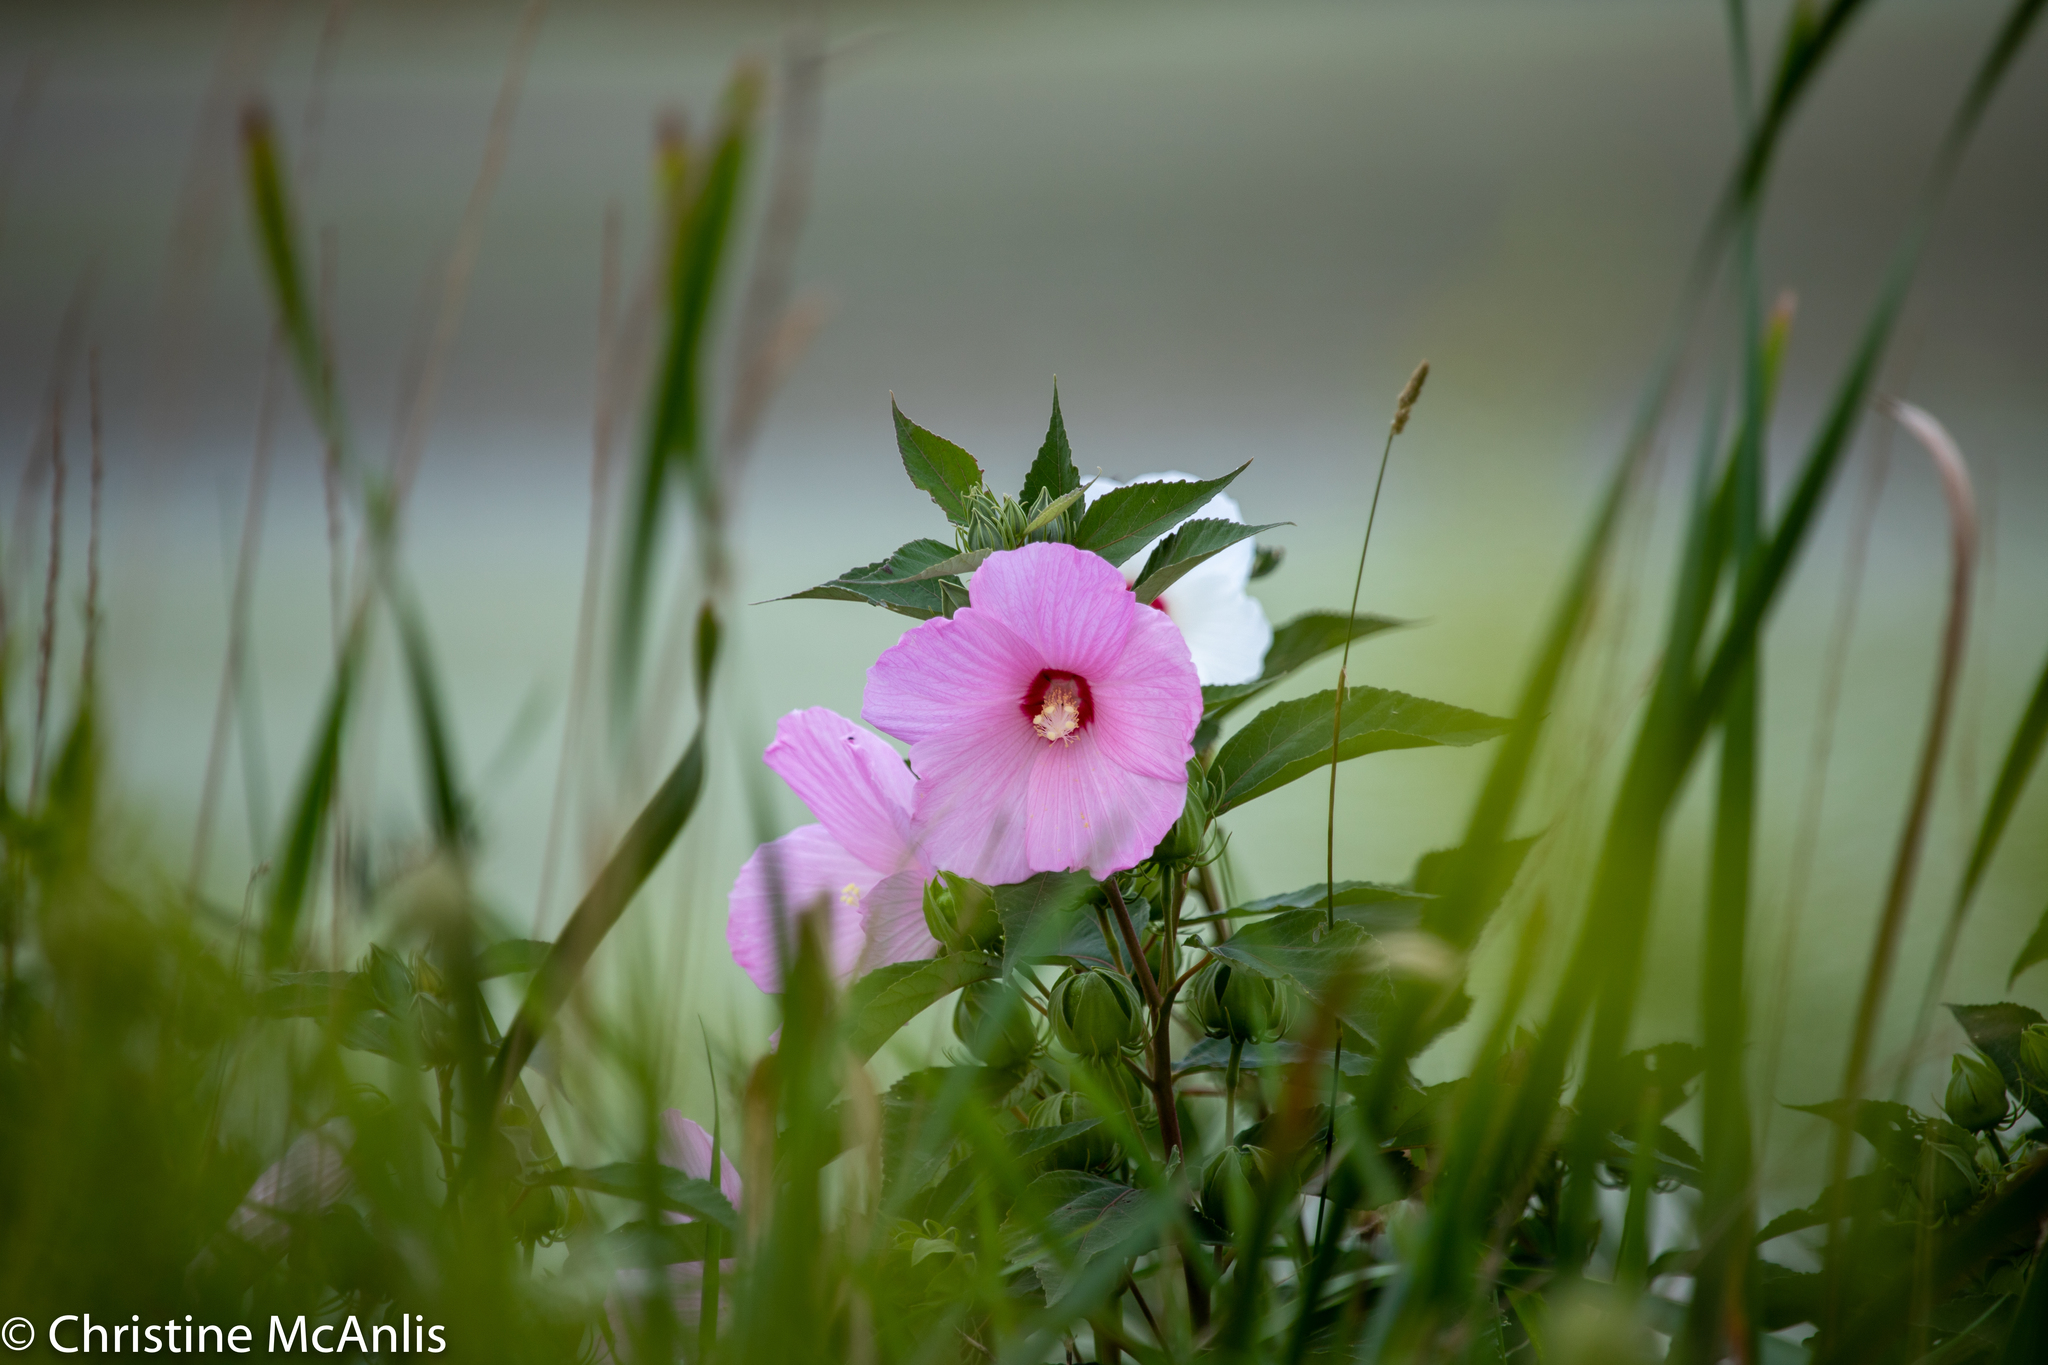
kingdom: Plantae
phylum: Tracheophyta
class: Magnoliopsida
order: Malvales
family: Malvaceae
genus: Hibiscus
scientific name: Hibiscus moscheutos
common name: Common rose-mallow
